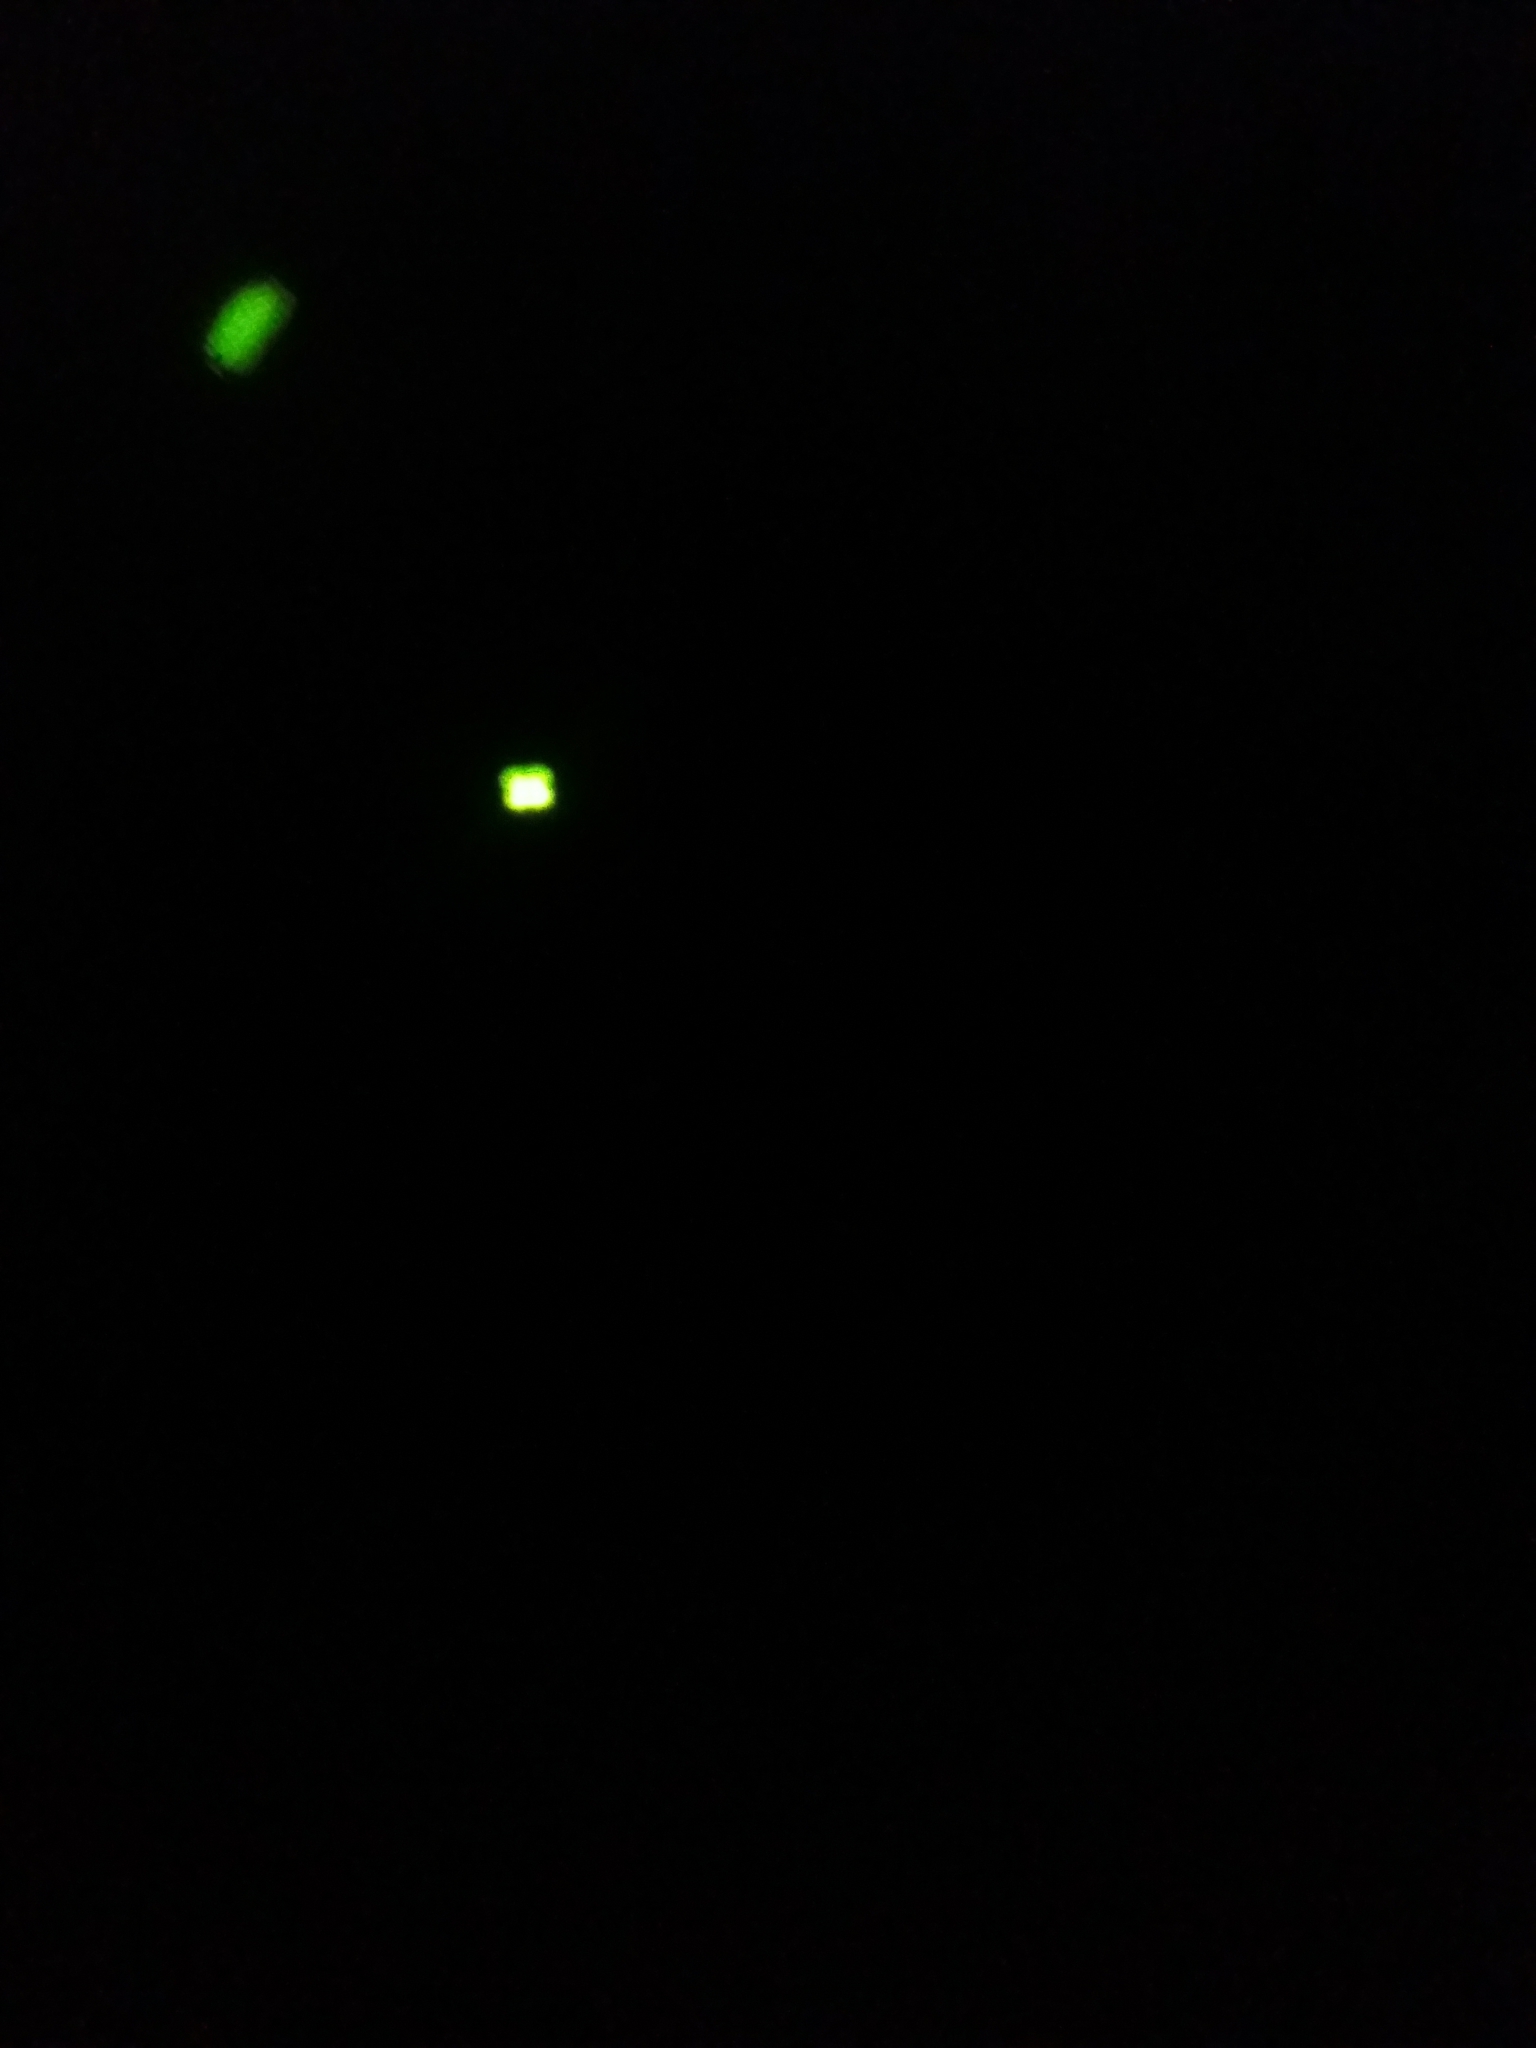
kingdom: Animalia
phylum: Arthropoda
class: Insecta
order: Coleoptera
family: Lampyridae
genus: Lamprohiza
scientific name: Lamprohiza splendidula
